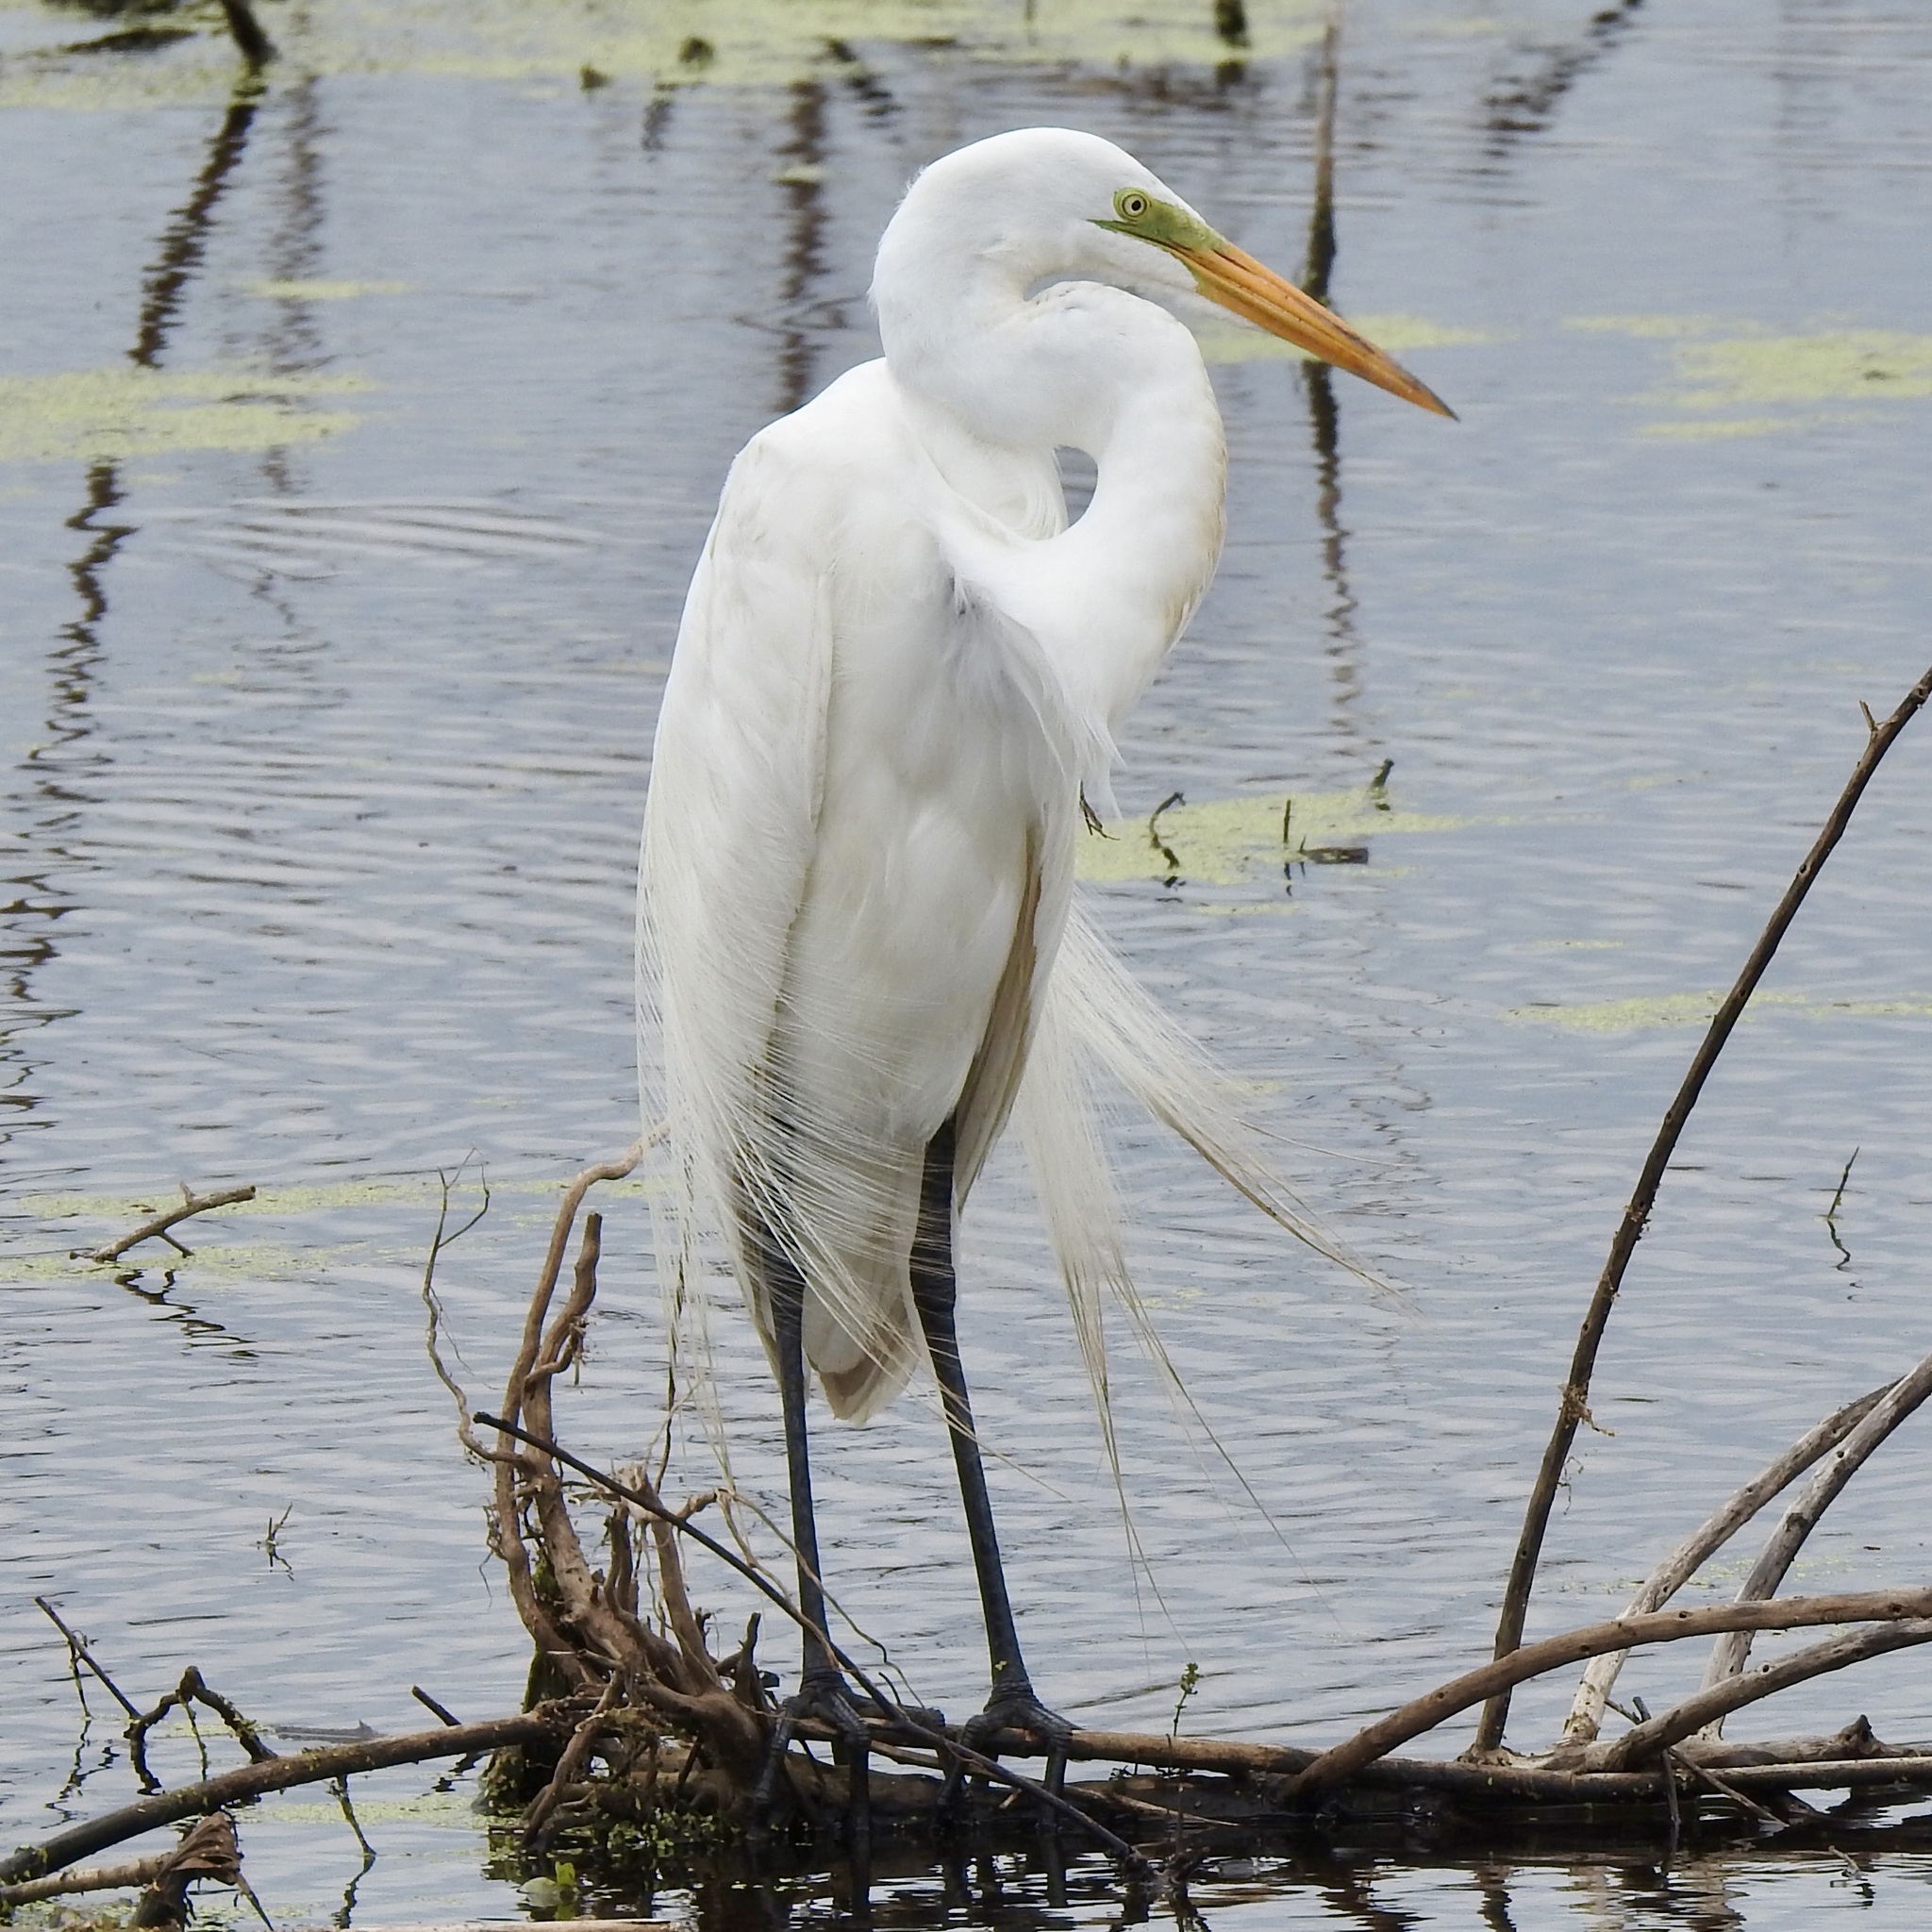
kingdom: Animalia
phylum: Chordata
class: Aves
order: Pelecaniformes
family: Ardeidae
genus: Ardea
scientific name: Ardea alba
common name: Great egret
